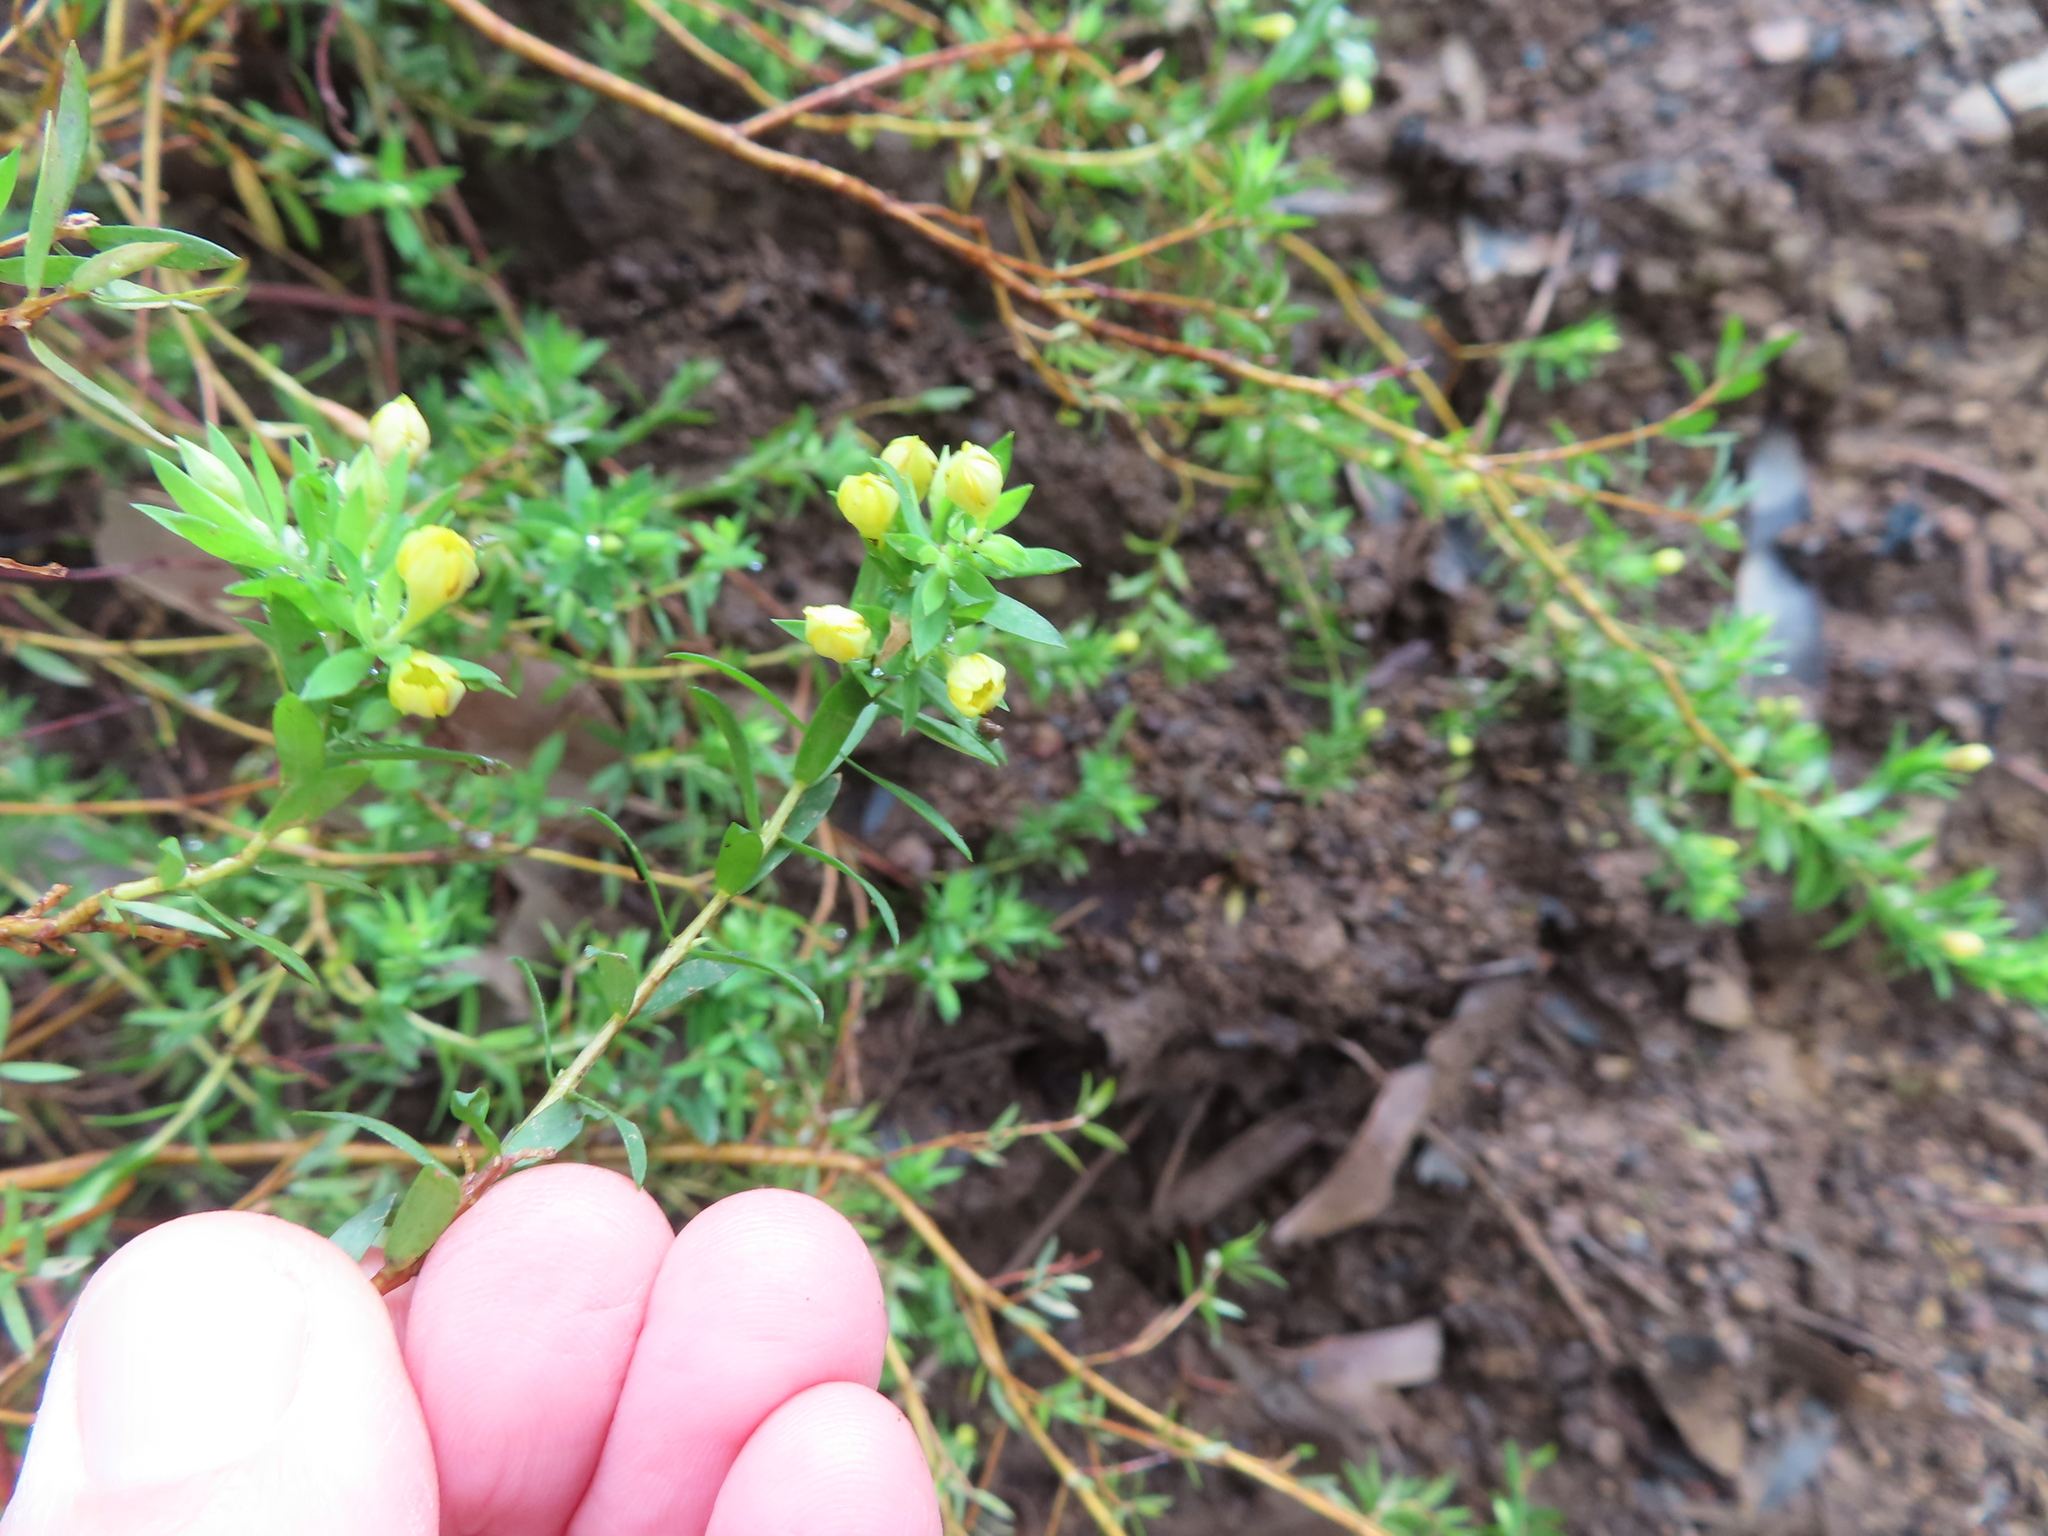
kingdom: Plantae
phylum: Tracheophyta
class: Magnoliopsida
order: Malvales
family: Thymelaeaceae
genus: Gnidia
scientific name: Gnidia juniperifolia
